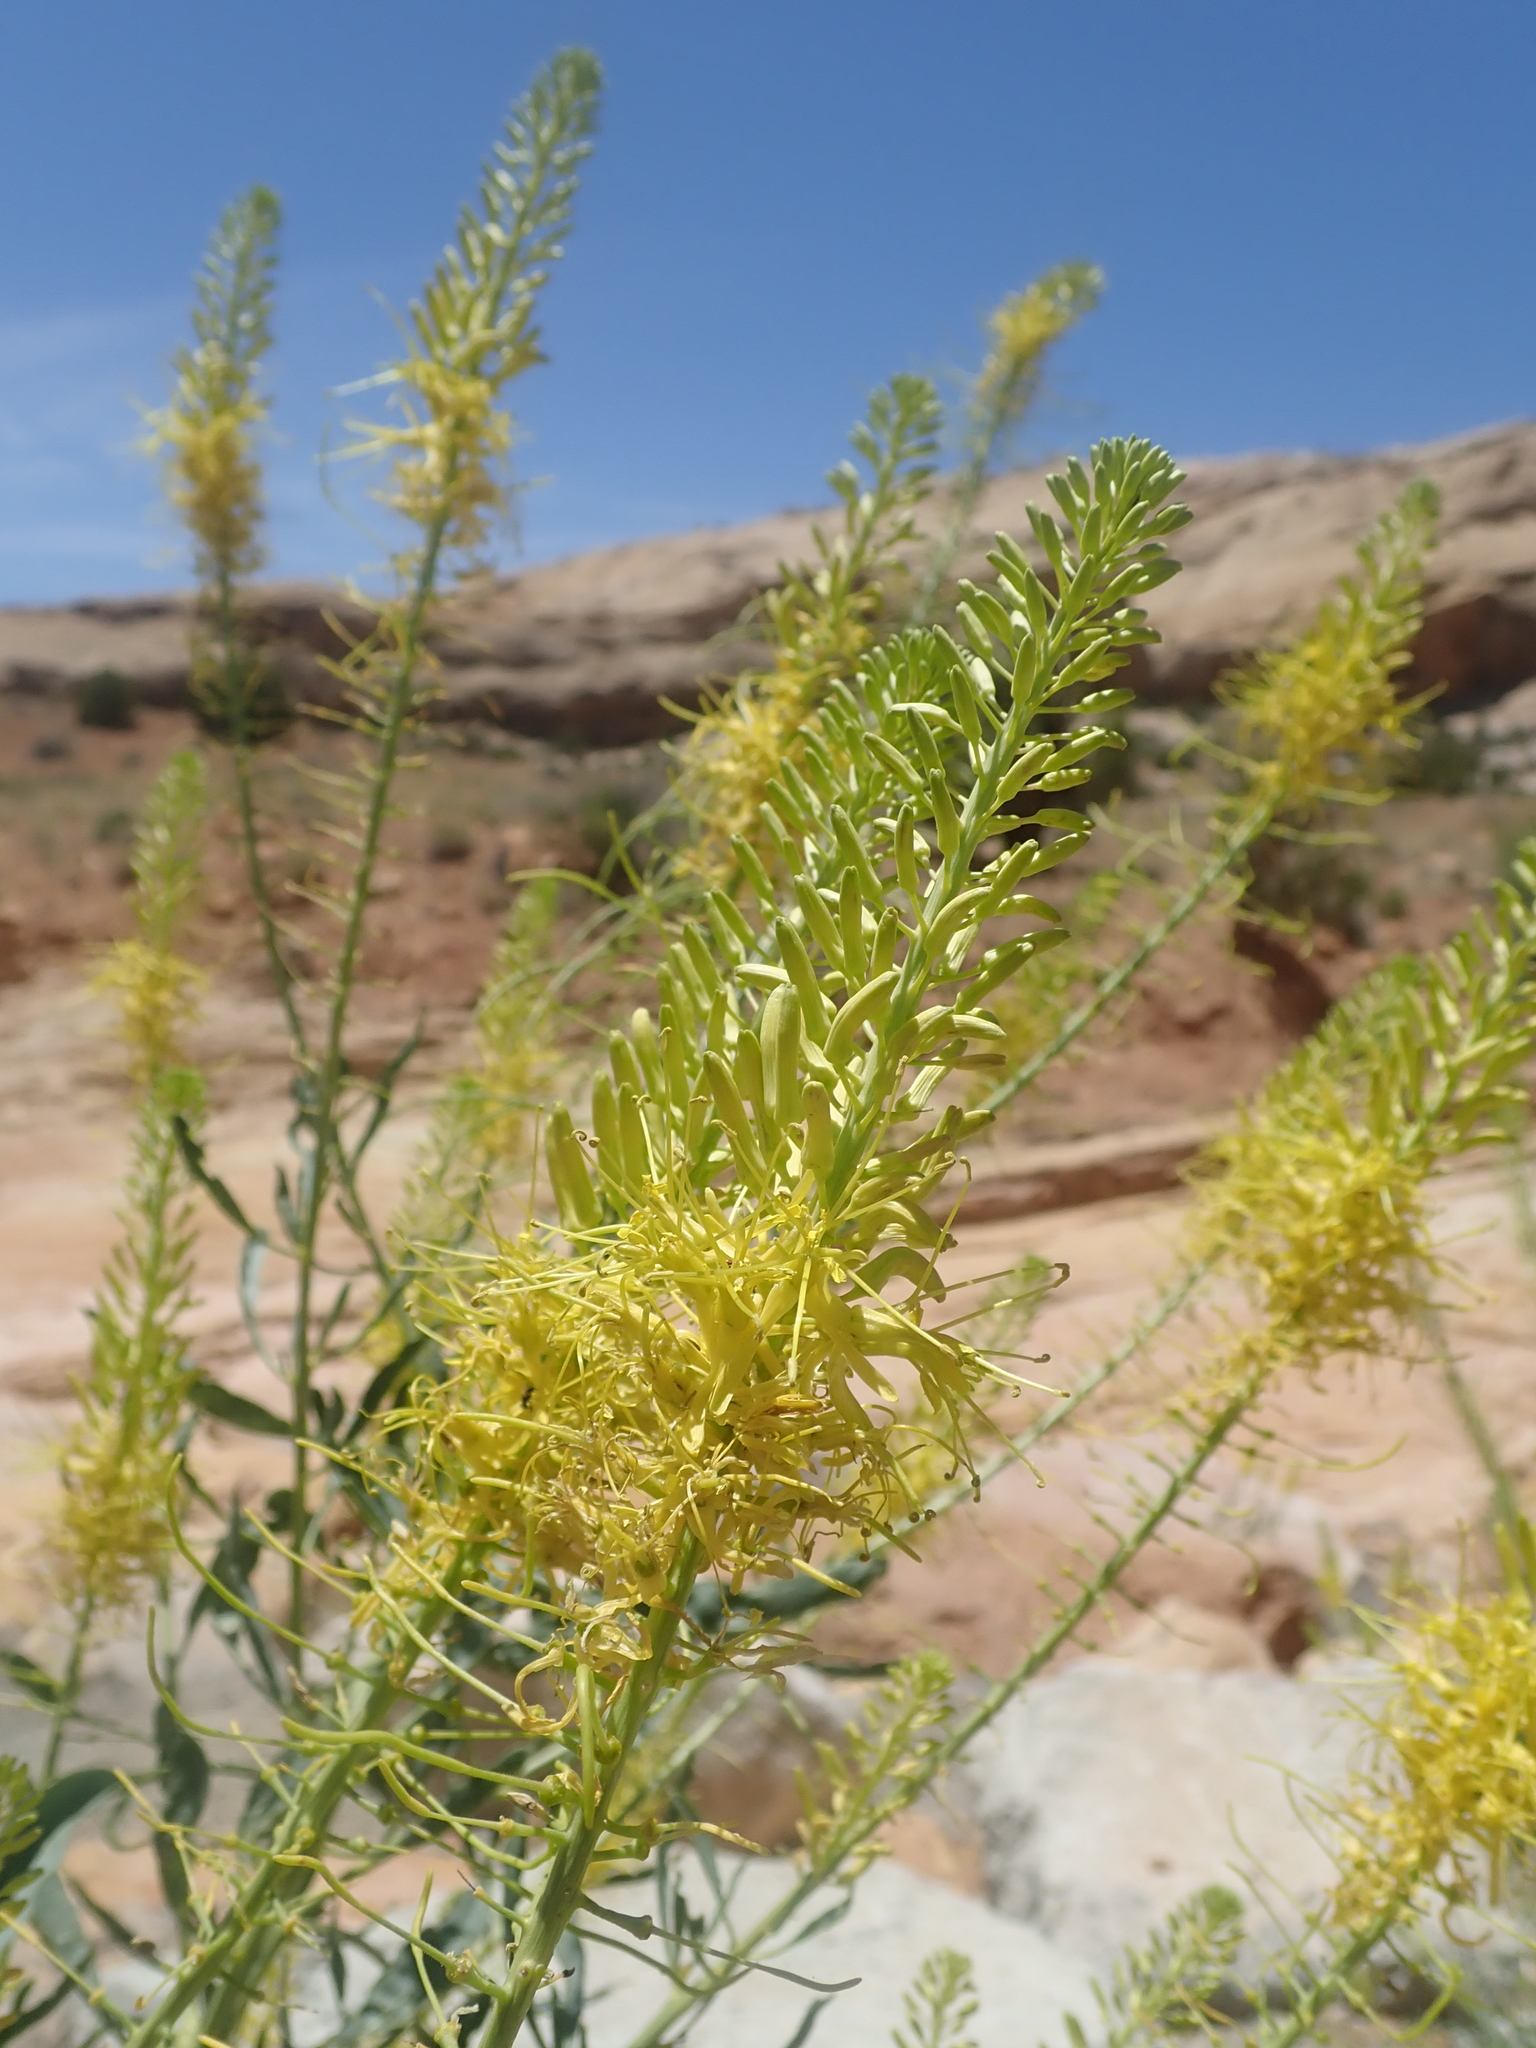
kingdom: Plantae
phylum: Tracheophyta
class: Magnoliopsida
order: Brassicales
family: Brassicaceae
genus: Stanleya
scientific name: Stanleya pinnata
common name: Prince's-plume
